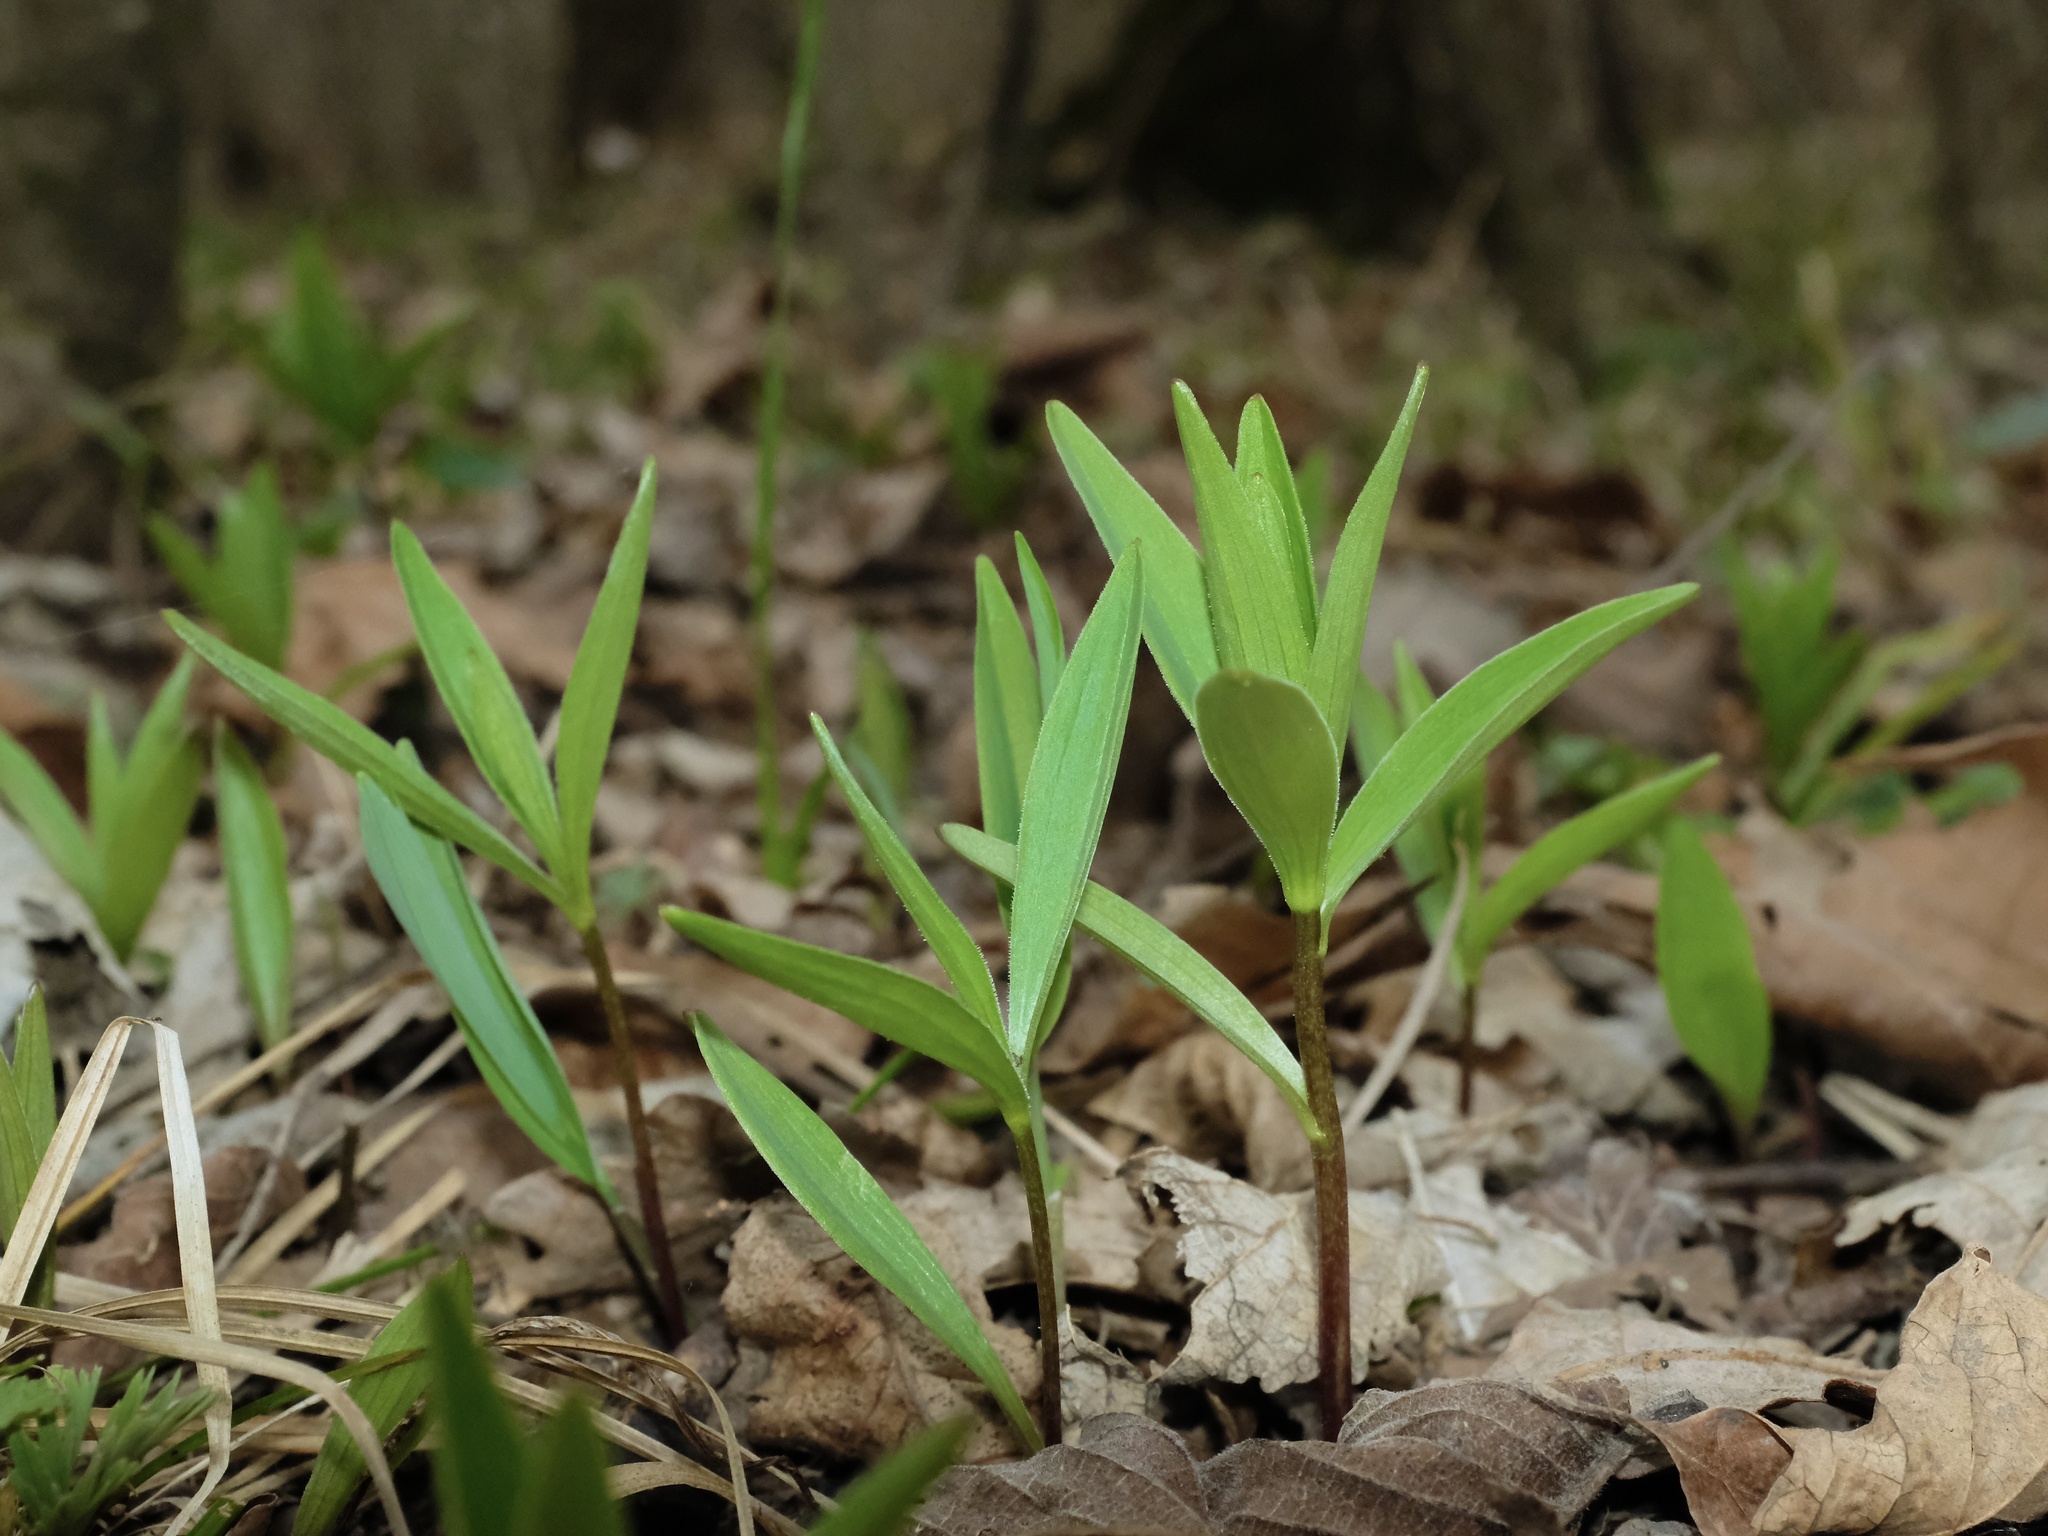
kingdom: Plantae
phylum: Tracheophyta
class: Liliopsida
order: Liliales
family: Liliaceae
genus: Lilium
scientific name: Lilium michiganense
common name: Michigan lily
